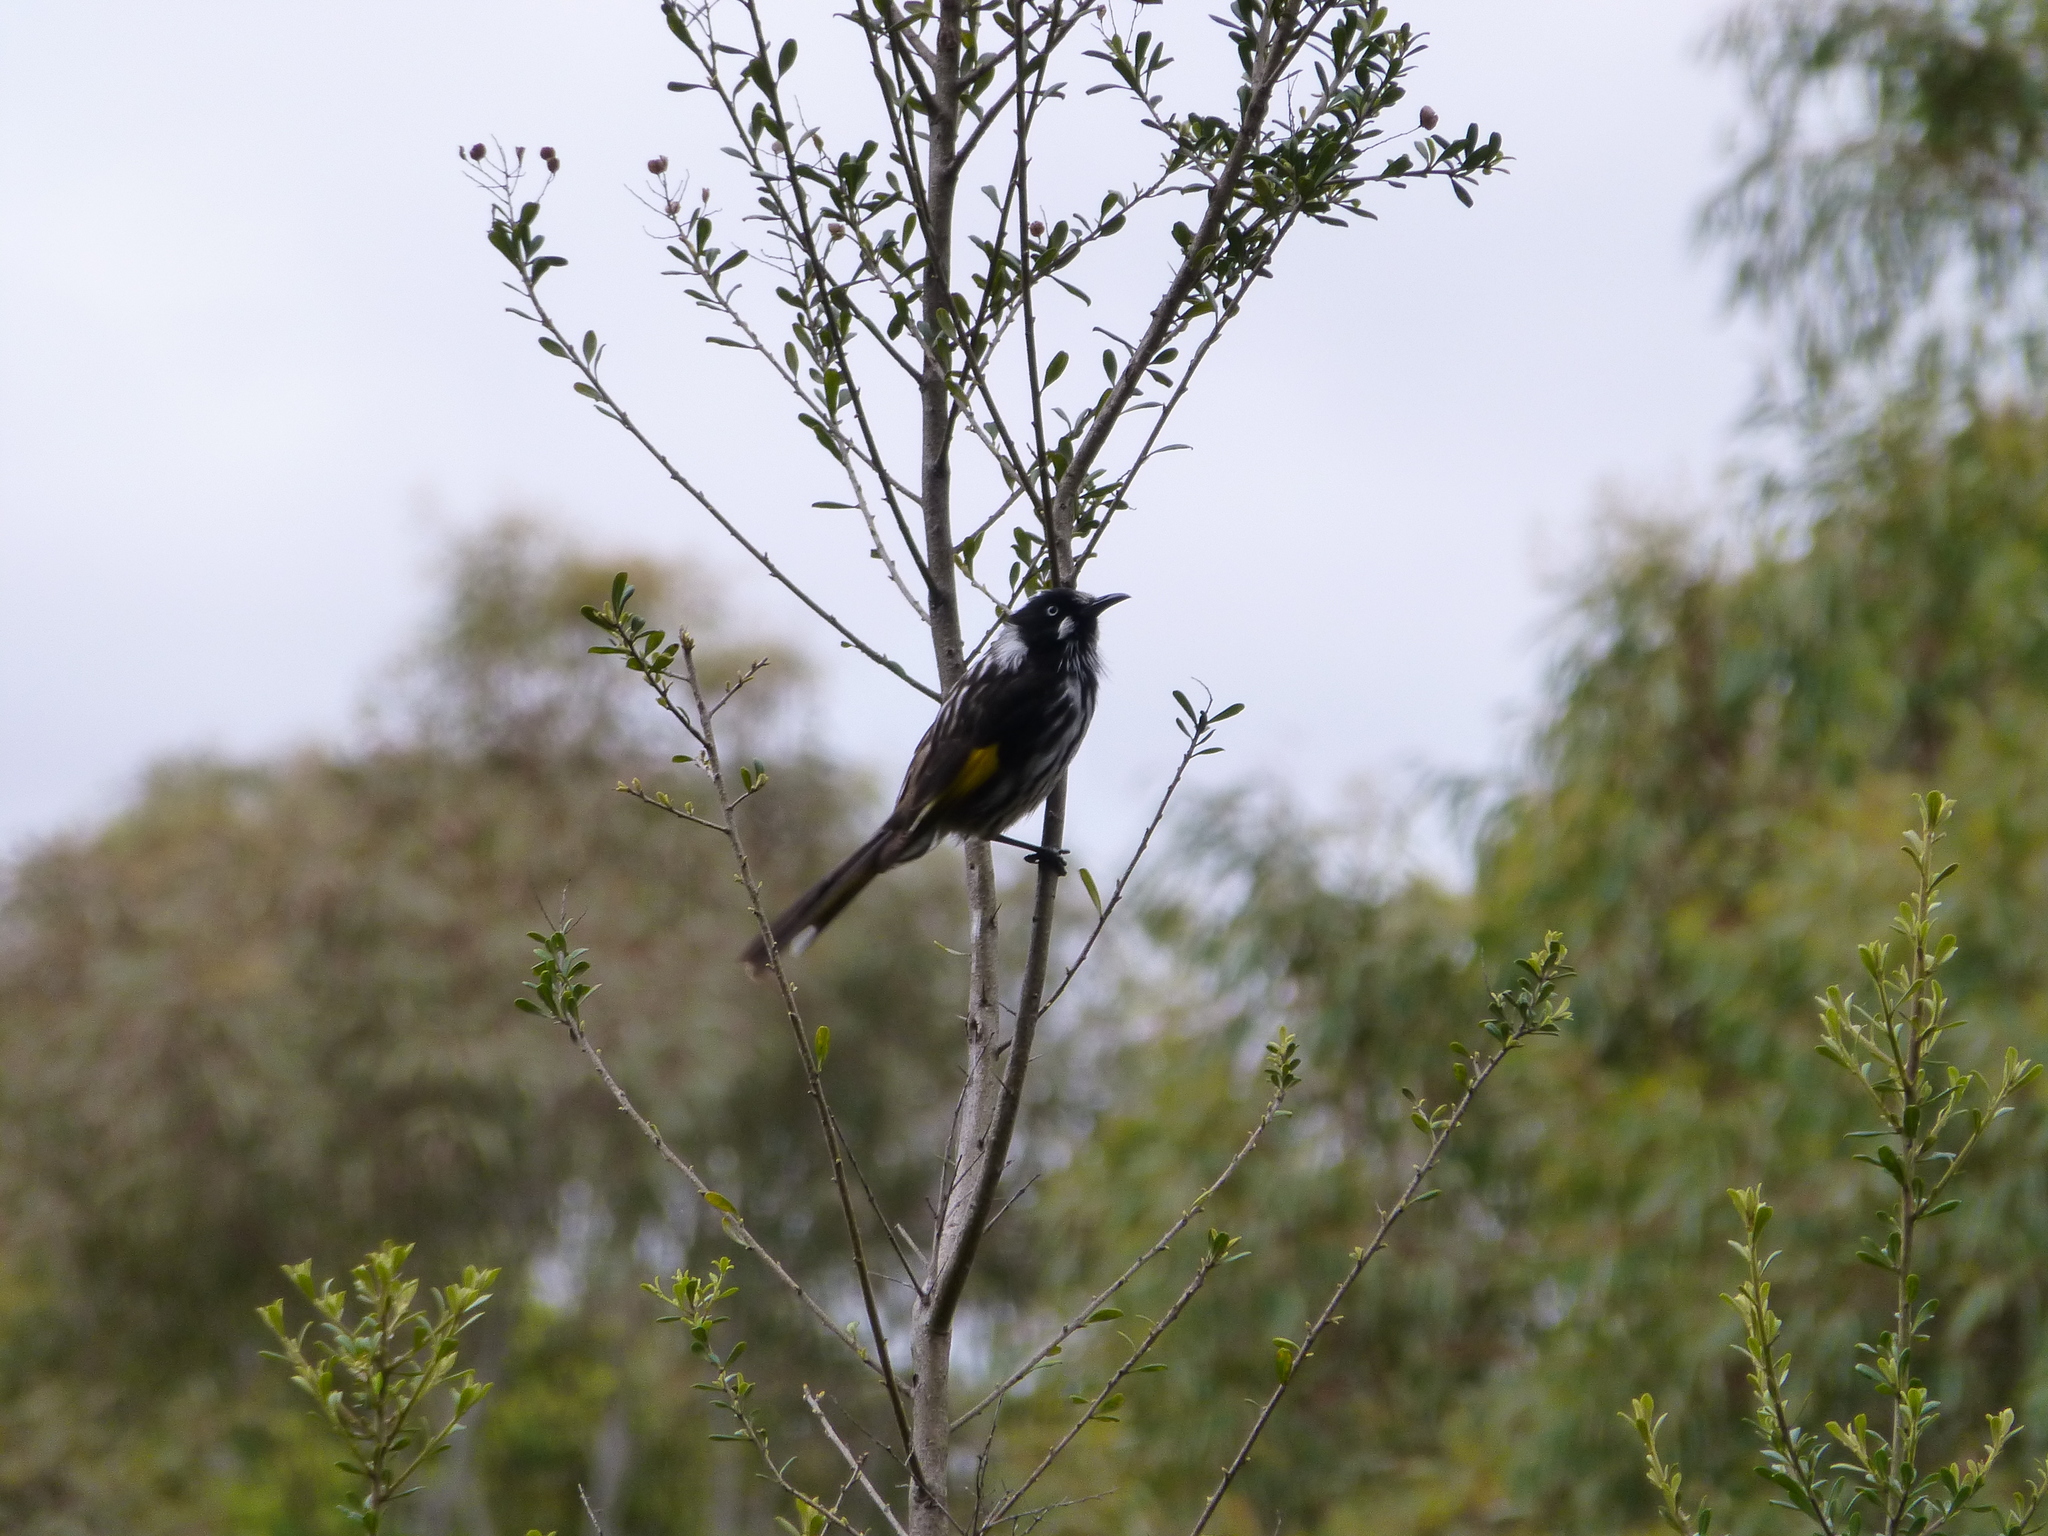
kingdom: Animalia
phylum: Chordata
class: Aves
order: Passeriformes
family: Meliphagidae
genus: Phylidonyris
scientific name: Phylidonyris novaehollandiae
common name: New holland honeyeater
